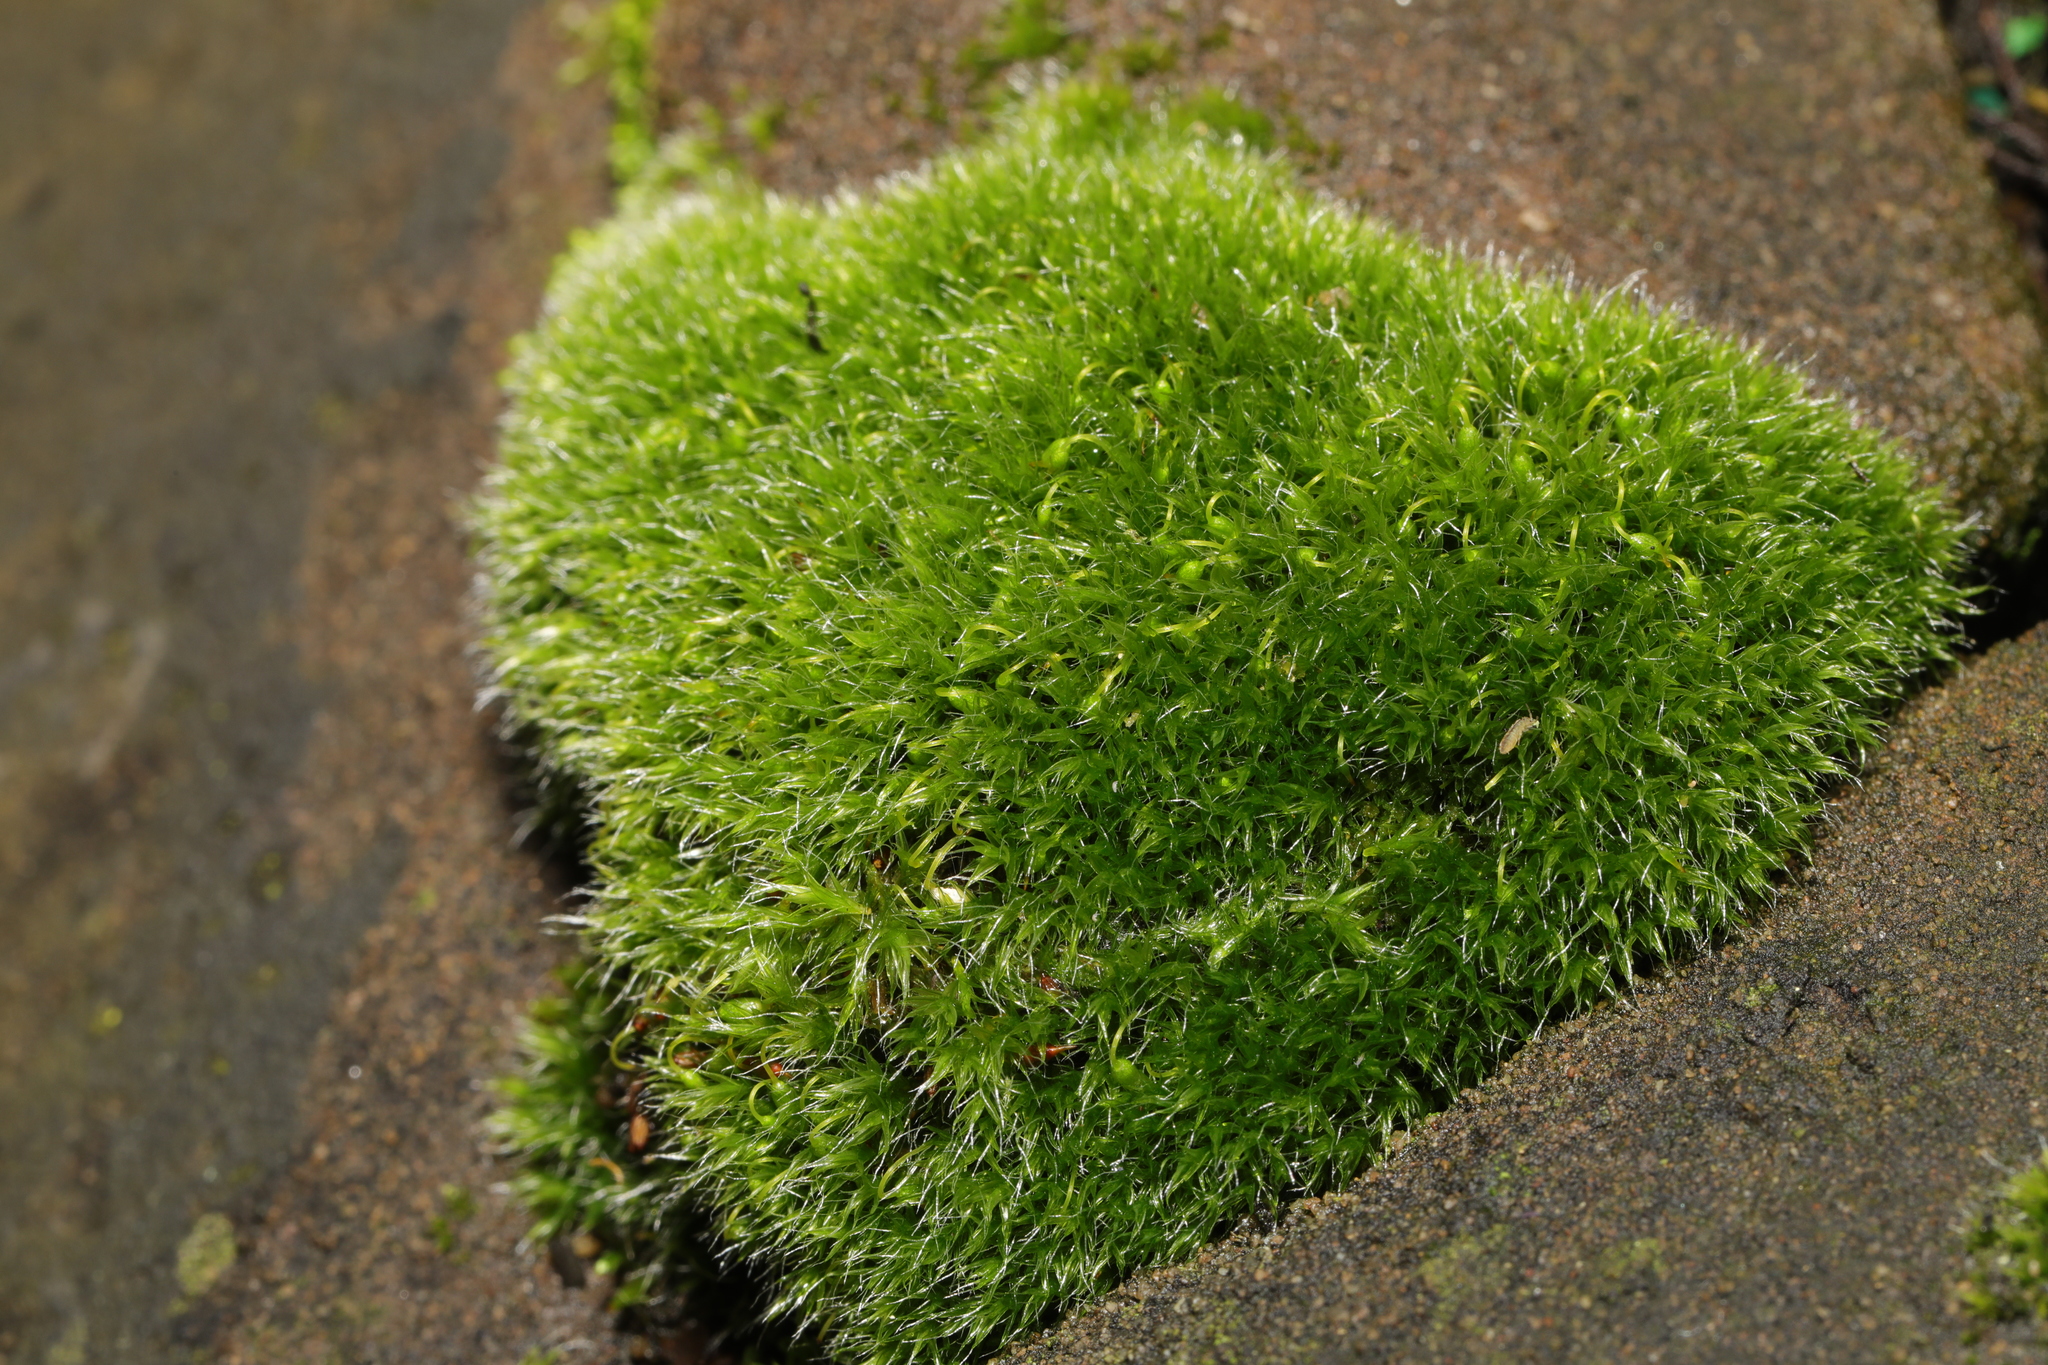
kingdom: Plantae
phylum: Bryophyta
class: Bryopsida
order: Grimmiales
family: Grimmiaceae
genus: Grimmia
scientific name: Grimmia pulvinata
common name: Grey-cushioned grimmia
